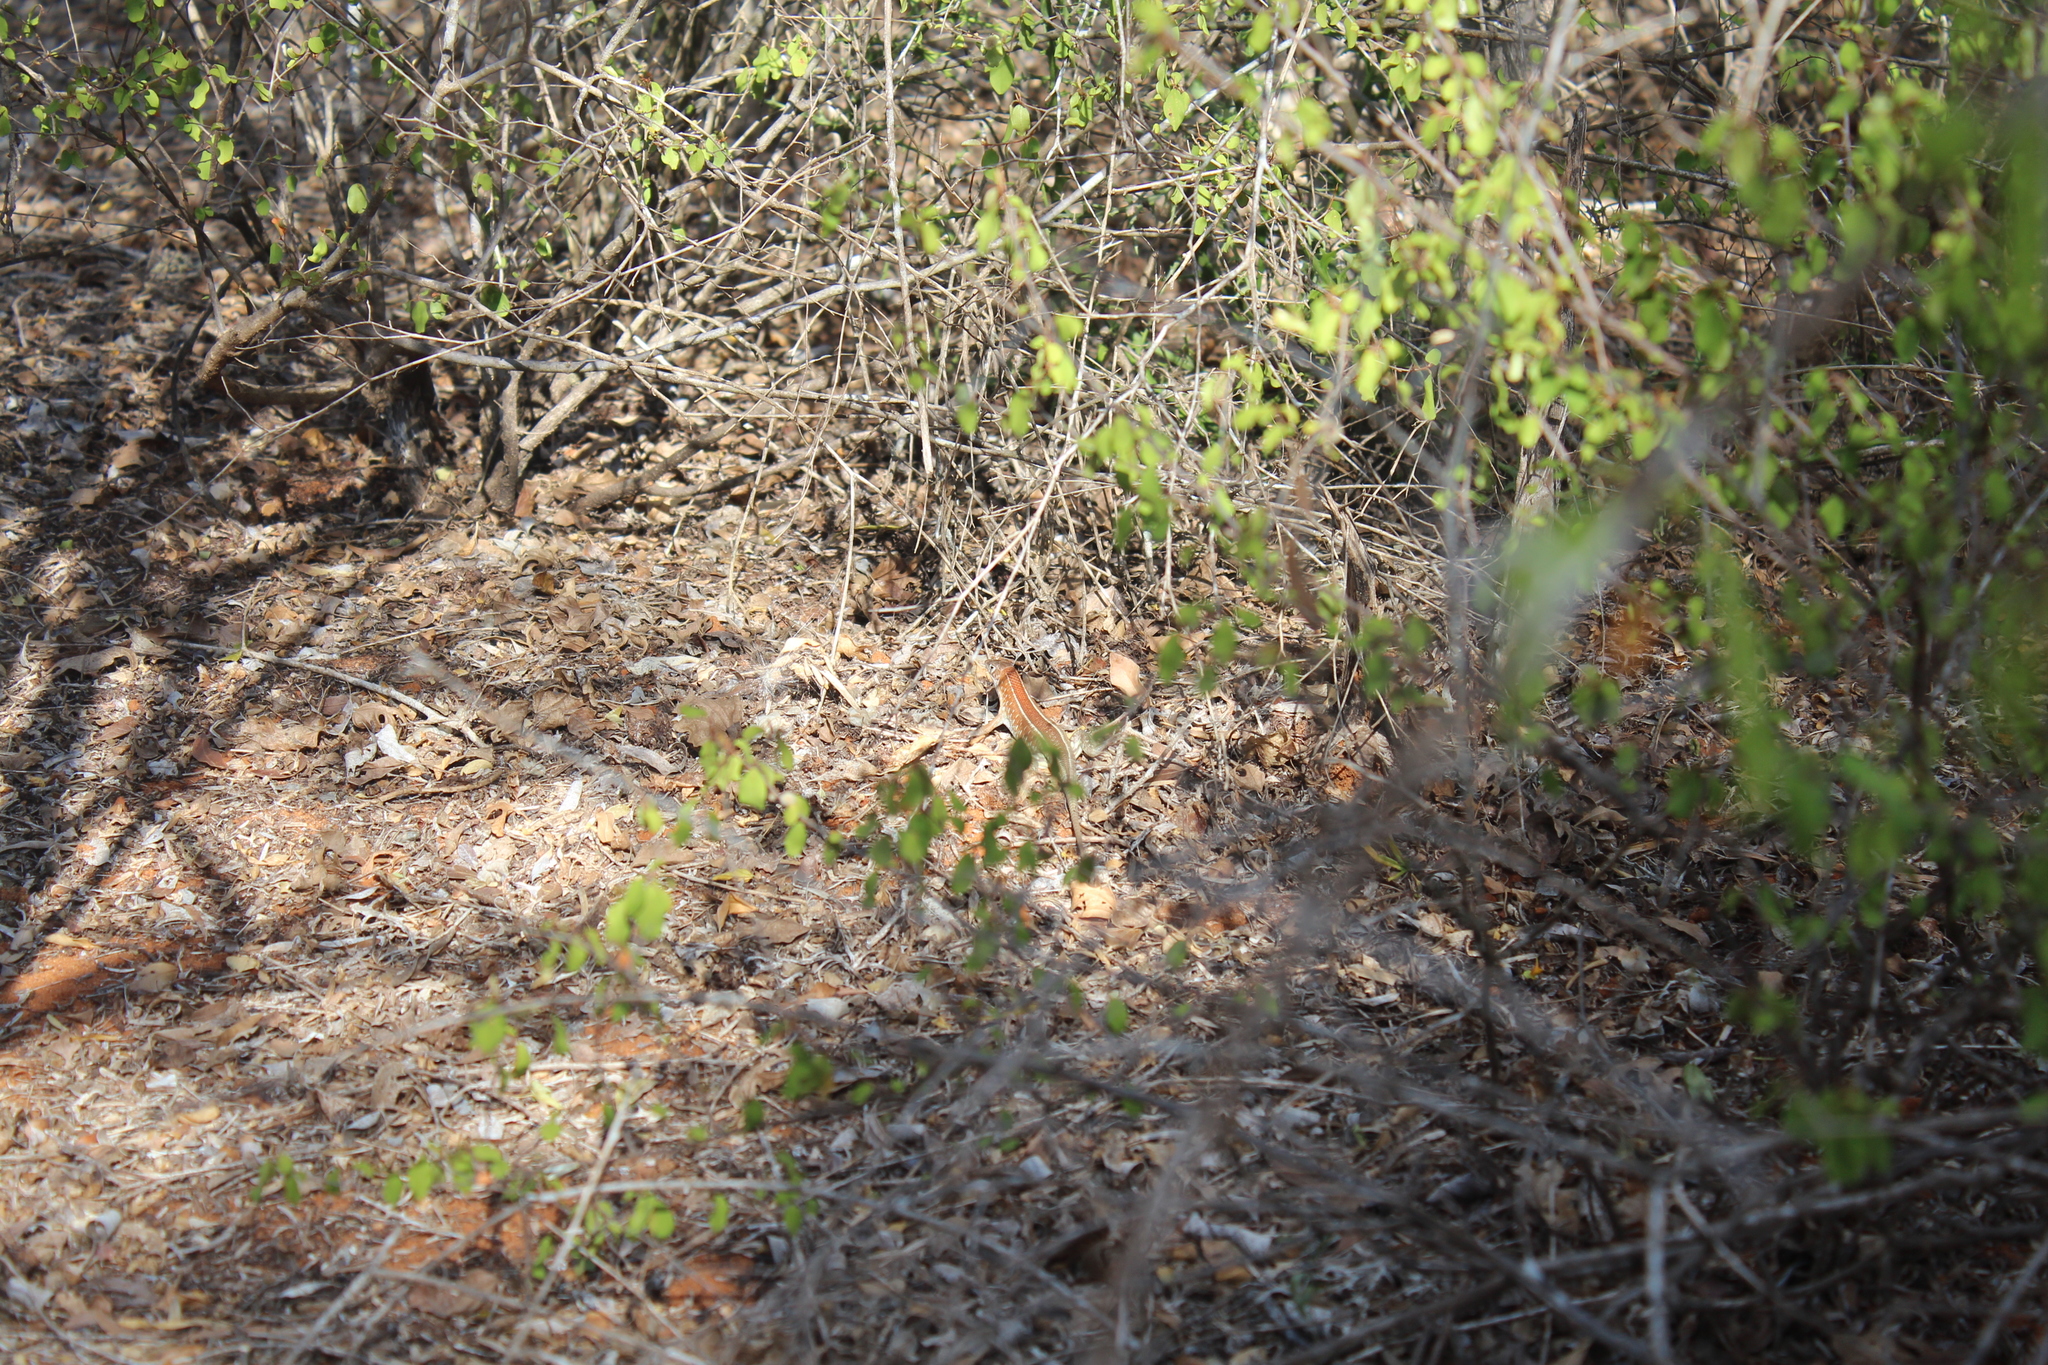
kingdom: Animalia
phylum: Chordata
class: Squamata
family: Gerrhosauridae
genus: Tracheloptychus
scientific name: Tracheloptychus petersi
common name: Peters' keeled cordylid
